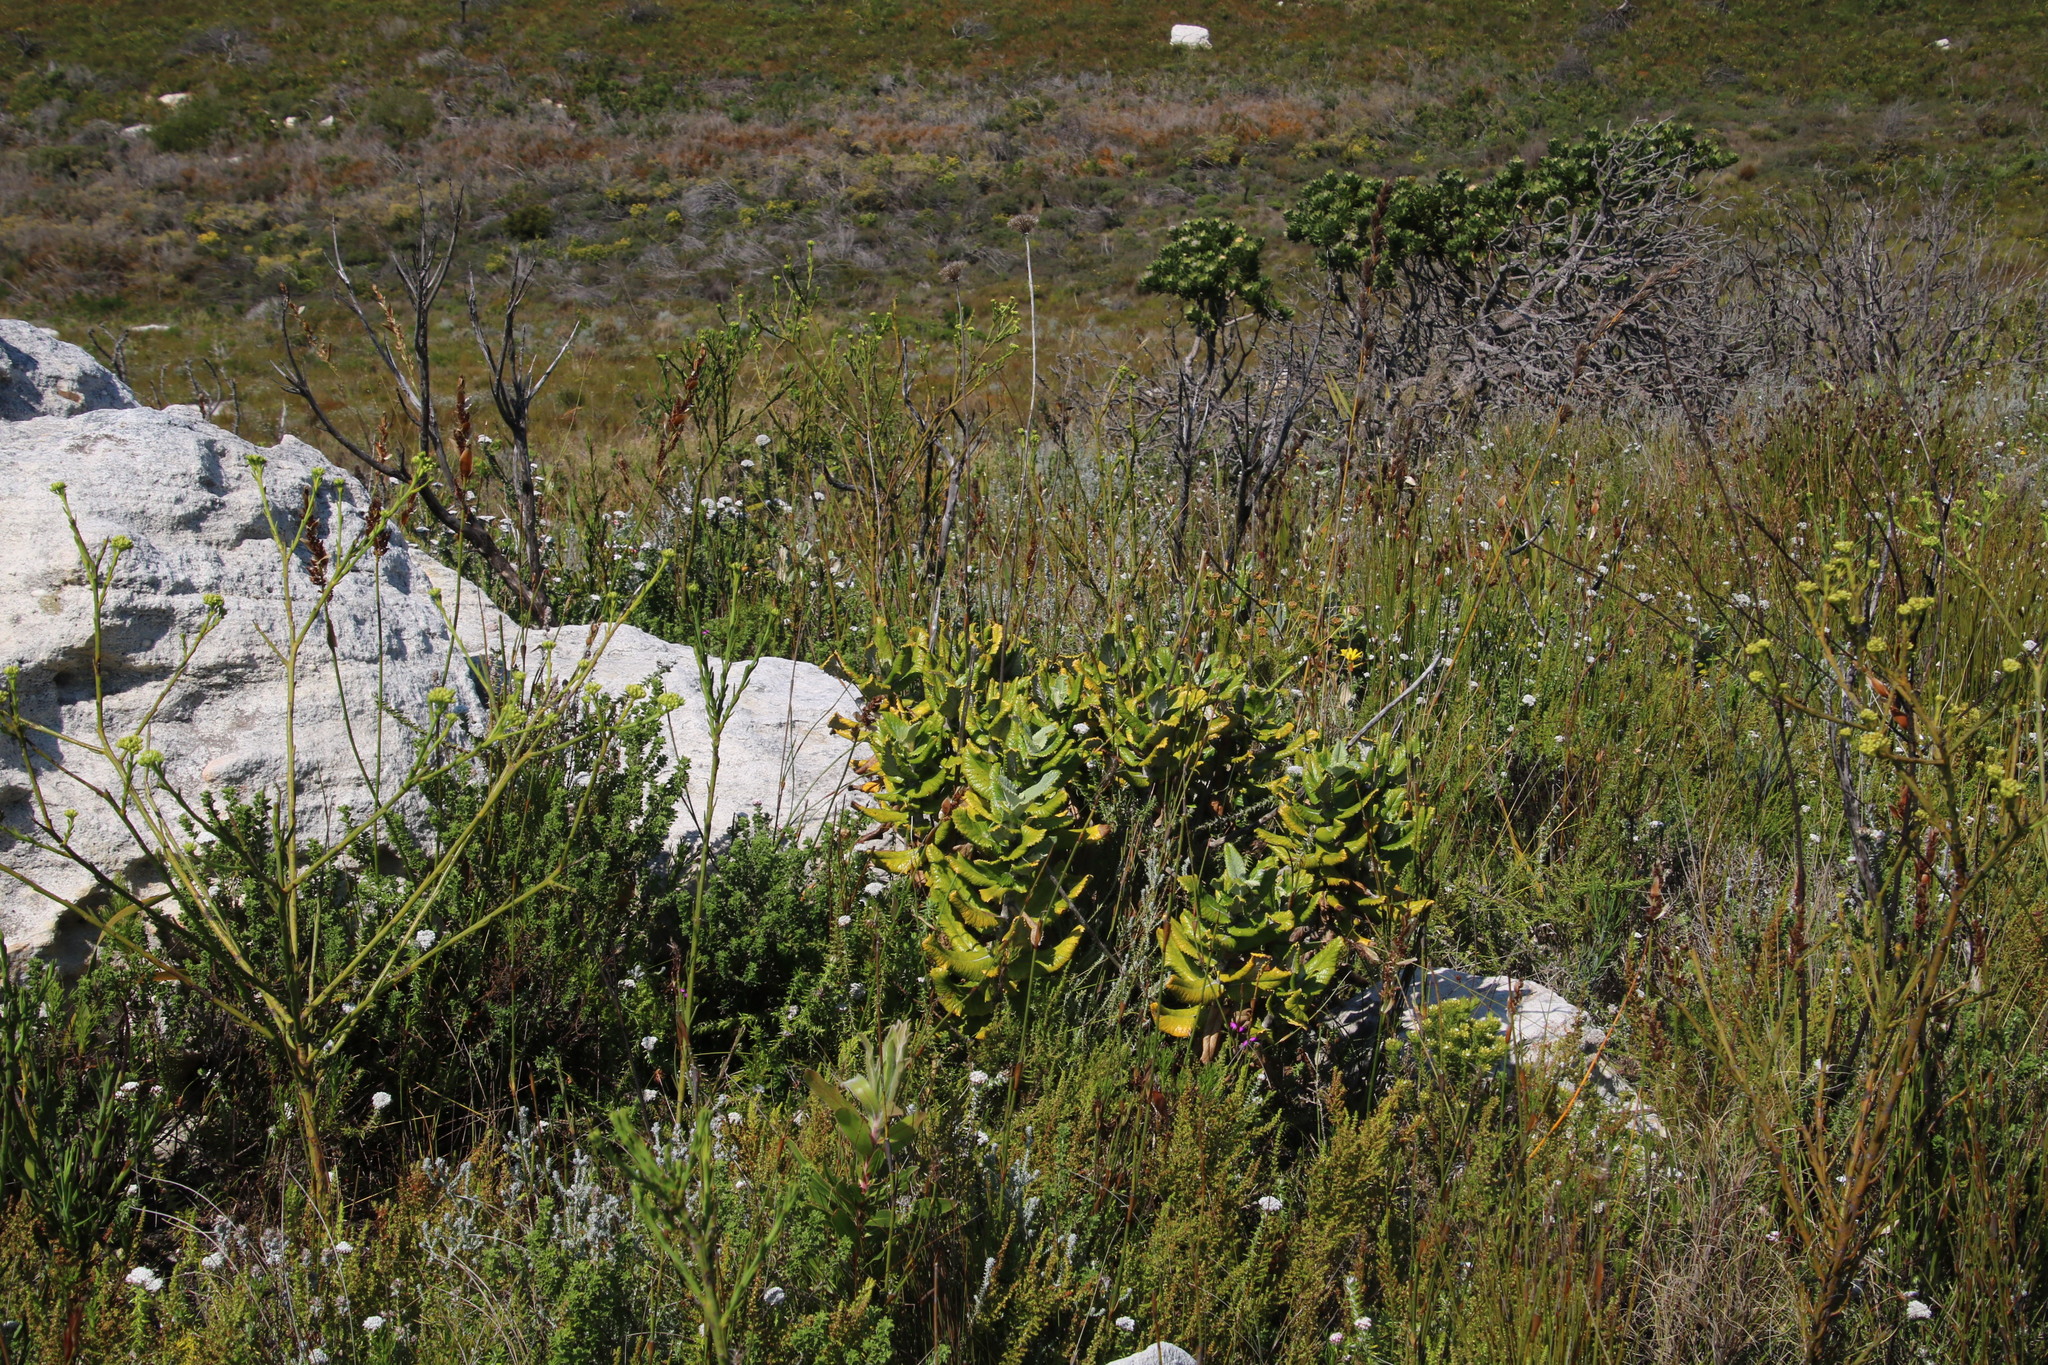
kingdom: Plantae
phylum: Tracheophyta
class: Magnoliopsida
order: Apiales
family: Apiaceae
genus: Hermas
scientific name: Hermas villosa
